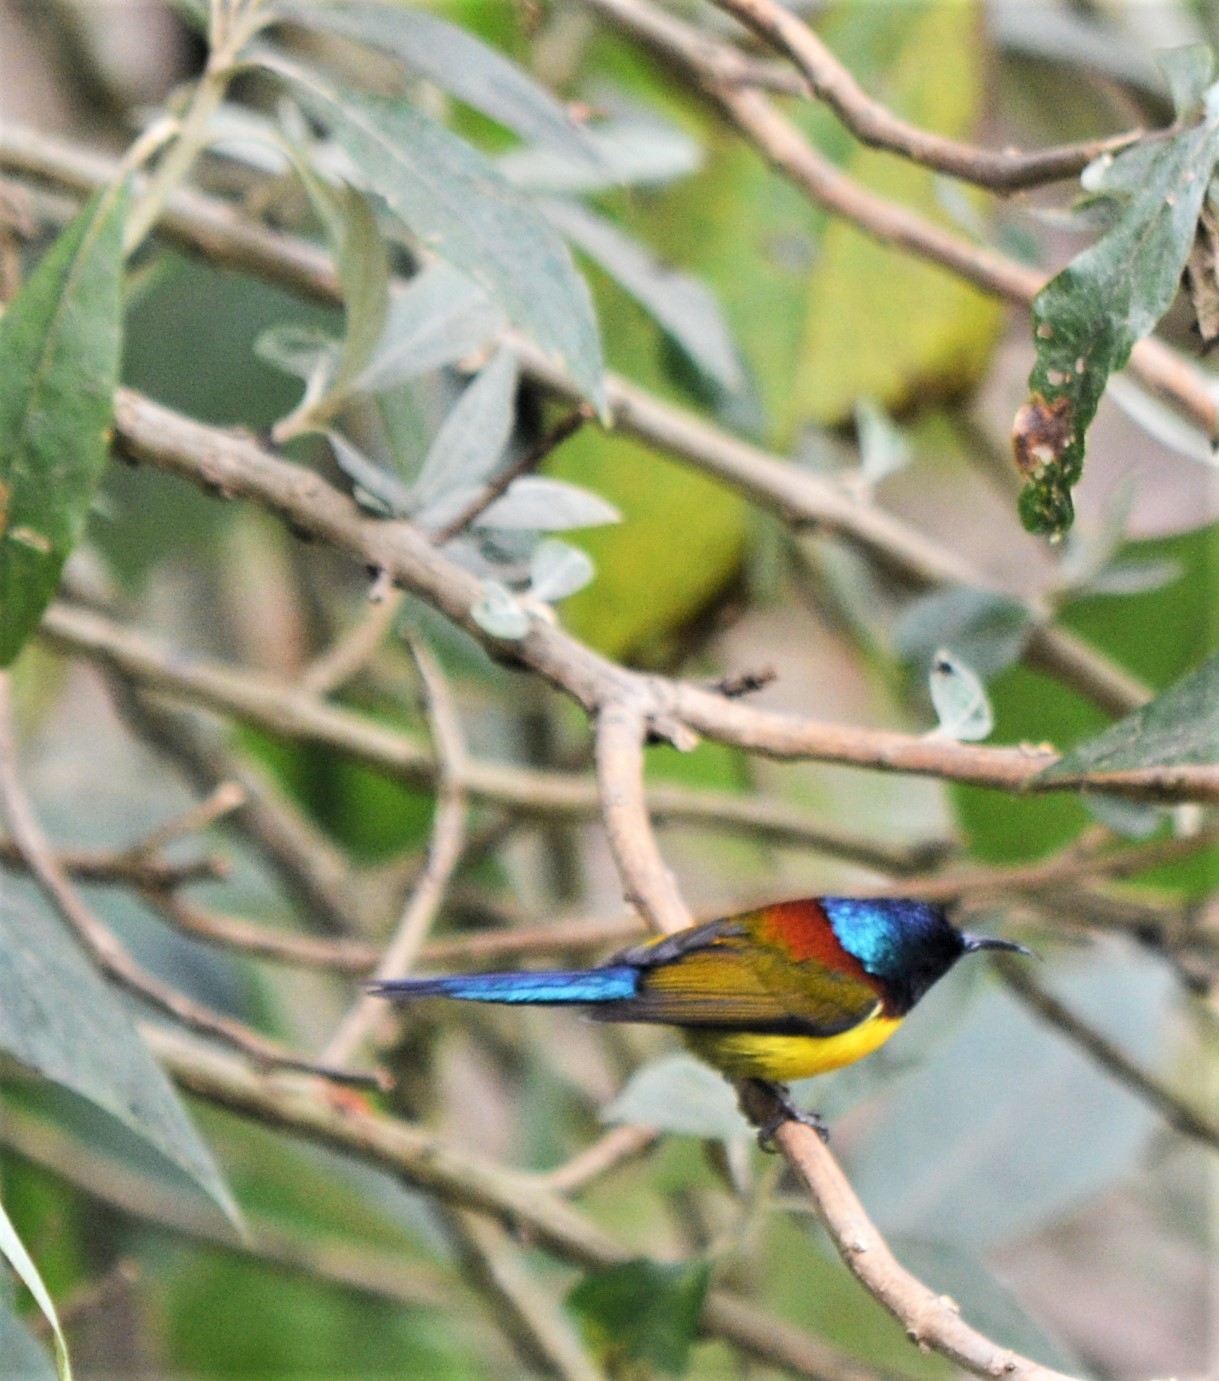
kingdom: Animalia
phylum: Chordata
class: Aves
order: Passeriformes
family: Nectariniidae
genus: Aethopyga
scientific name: Aethopyga nipalensis
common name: Green-tailed sunbird
